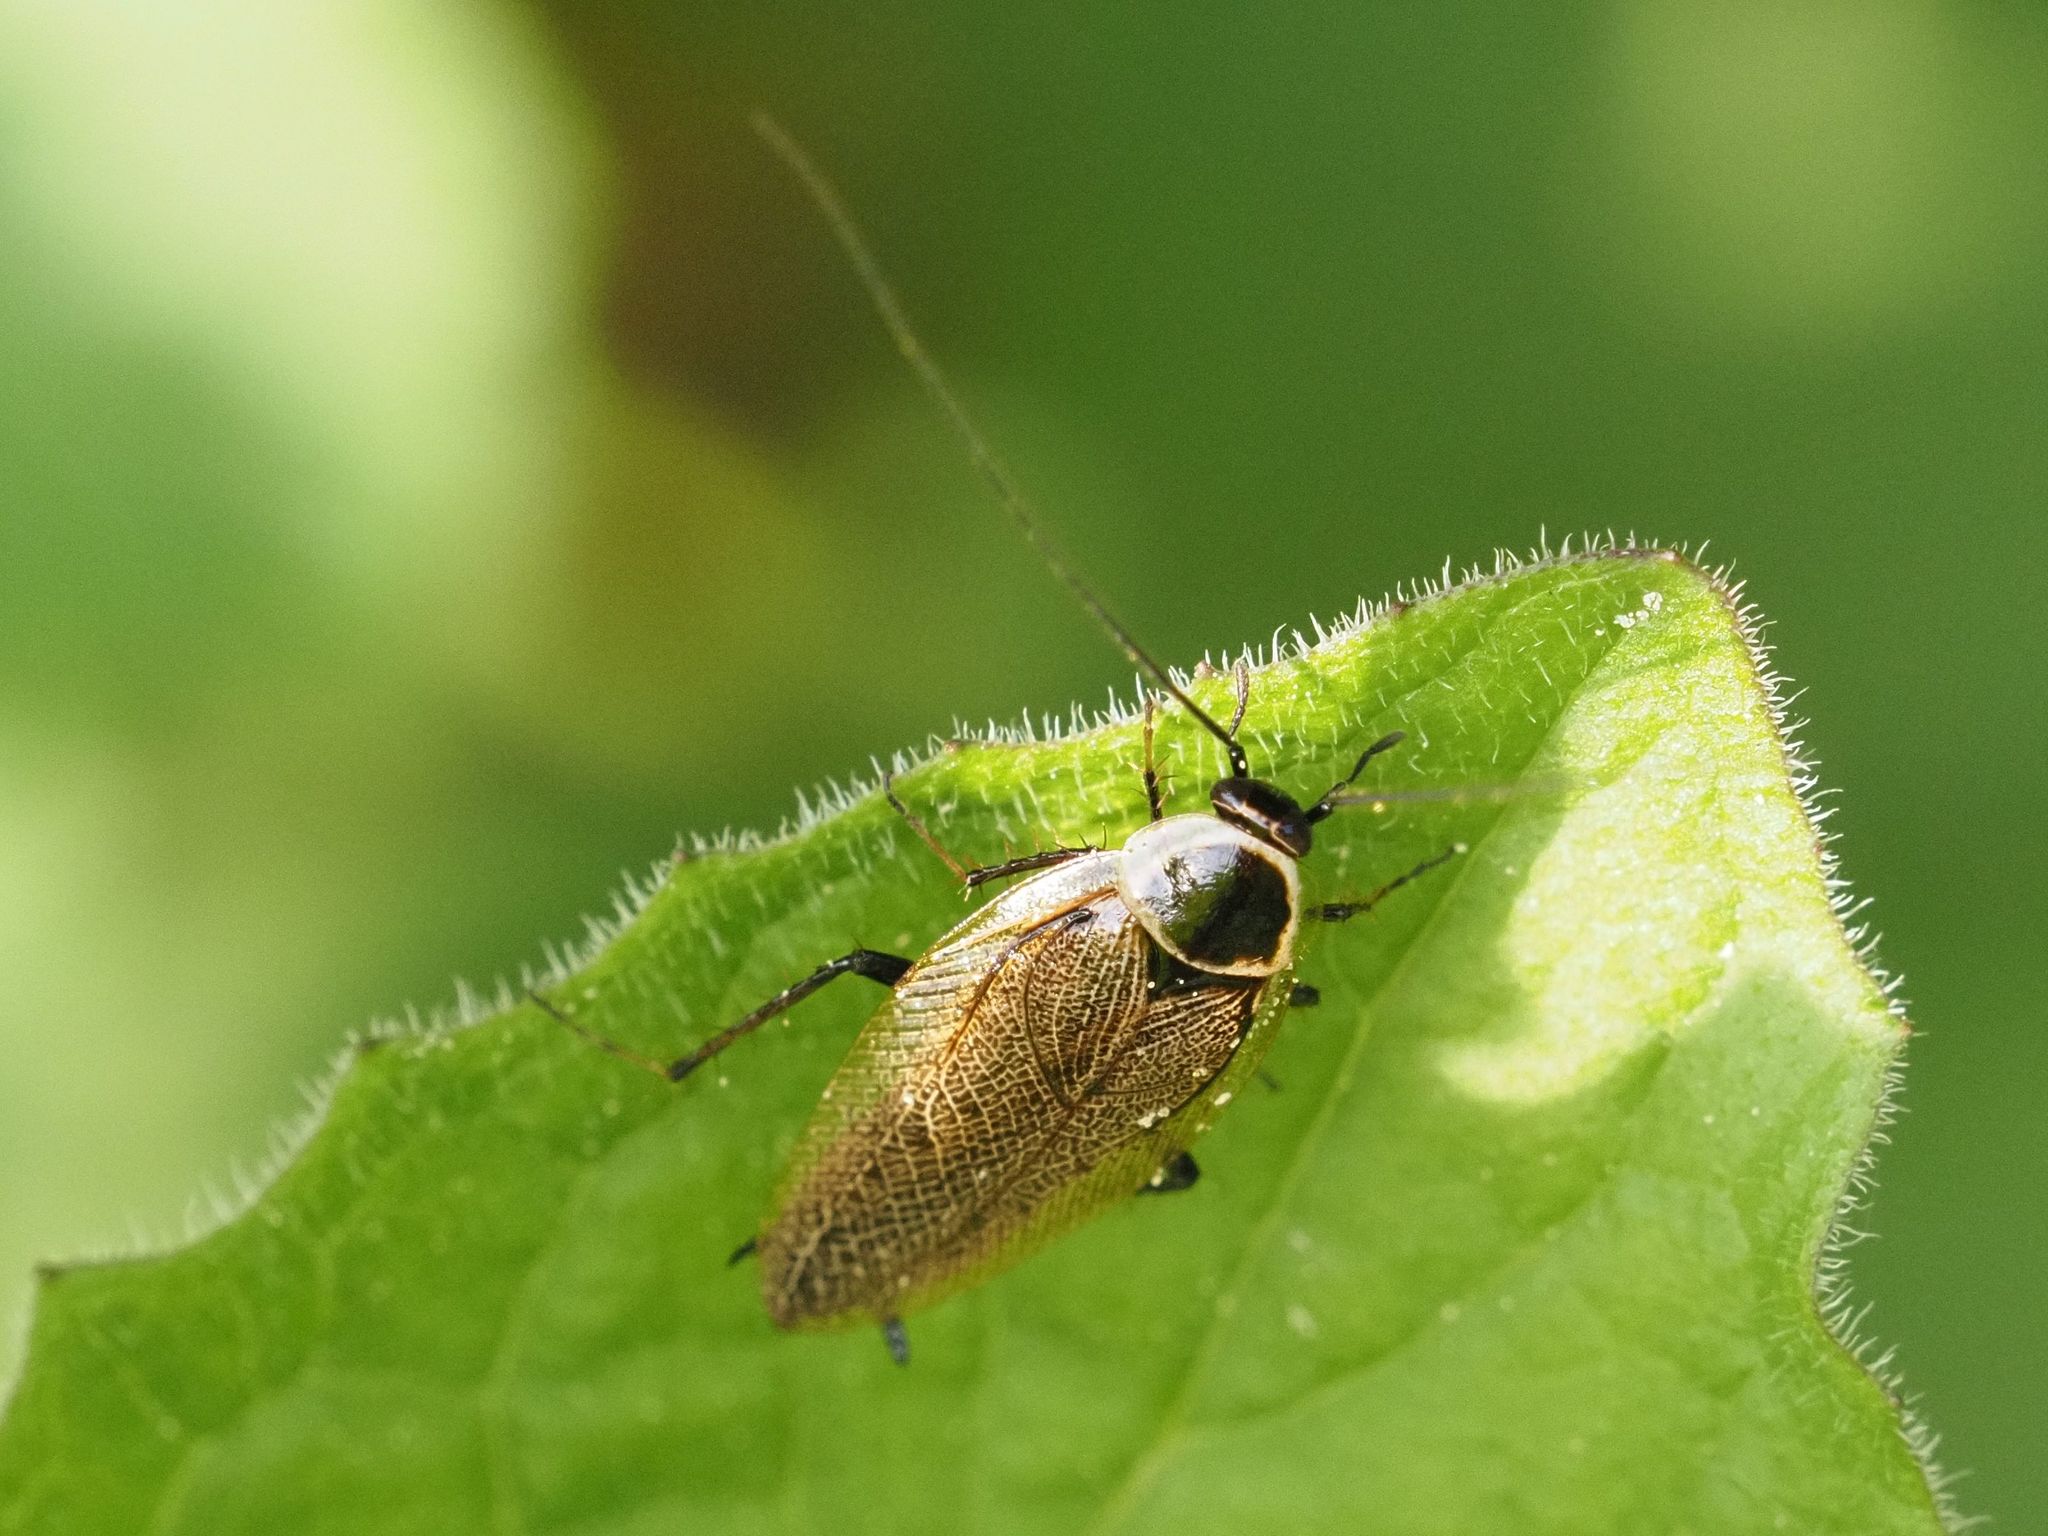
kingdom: Animalia
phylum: Arthropoda
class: Insecta
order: Blattodea
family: Ectobiidae
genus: Ectobius
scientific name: Ectobius sylvestris
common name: Forest cockroach
